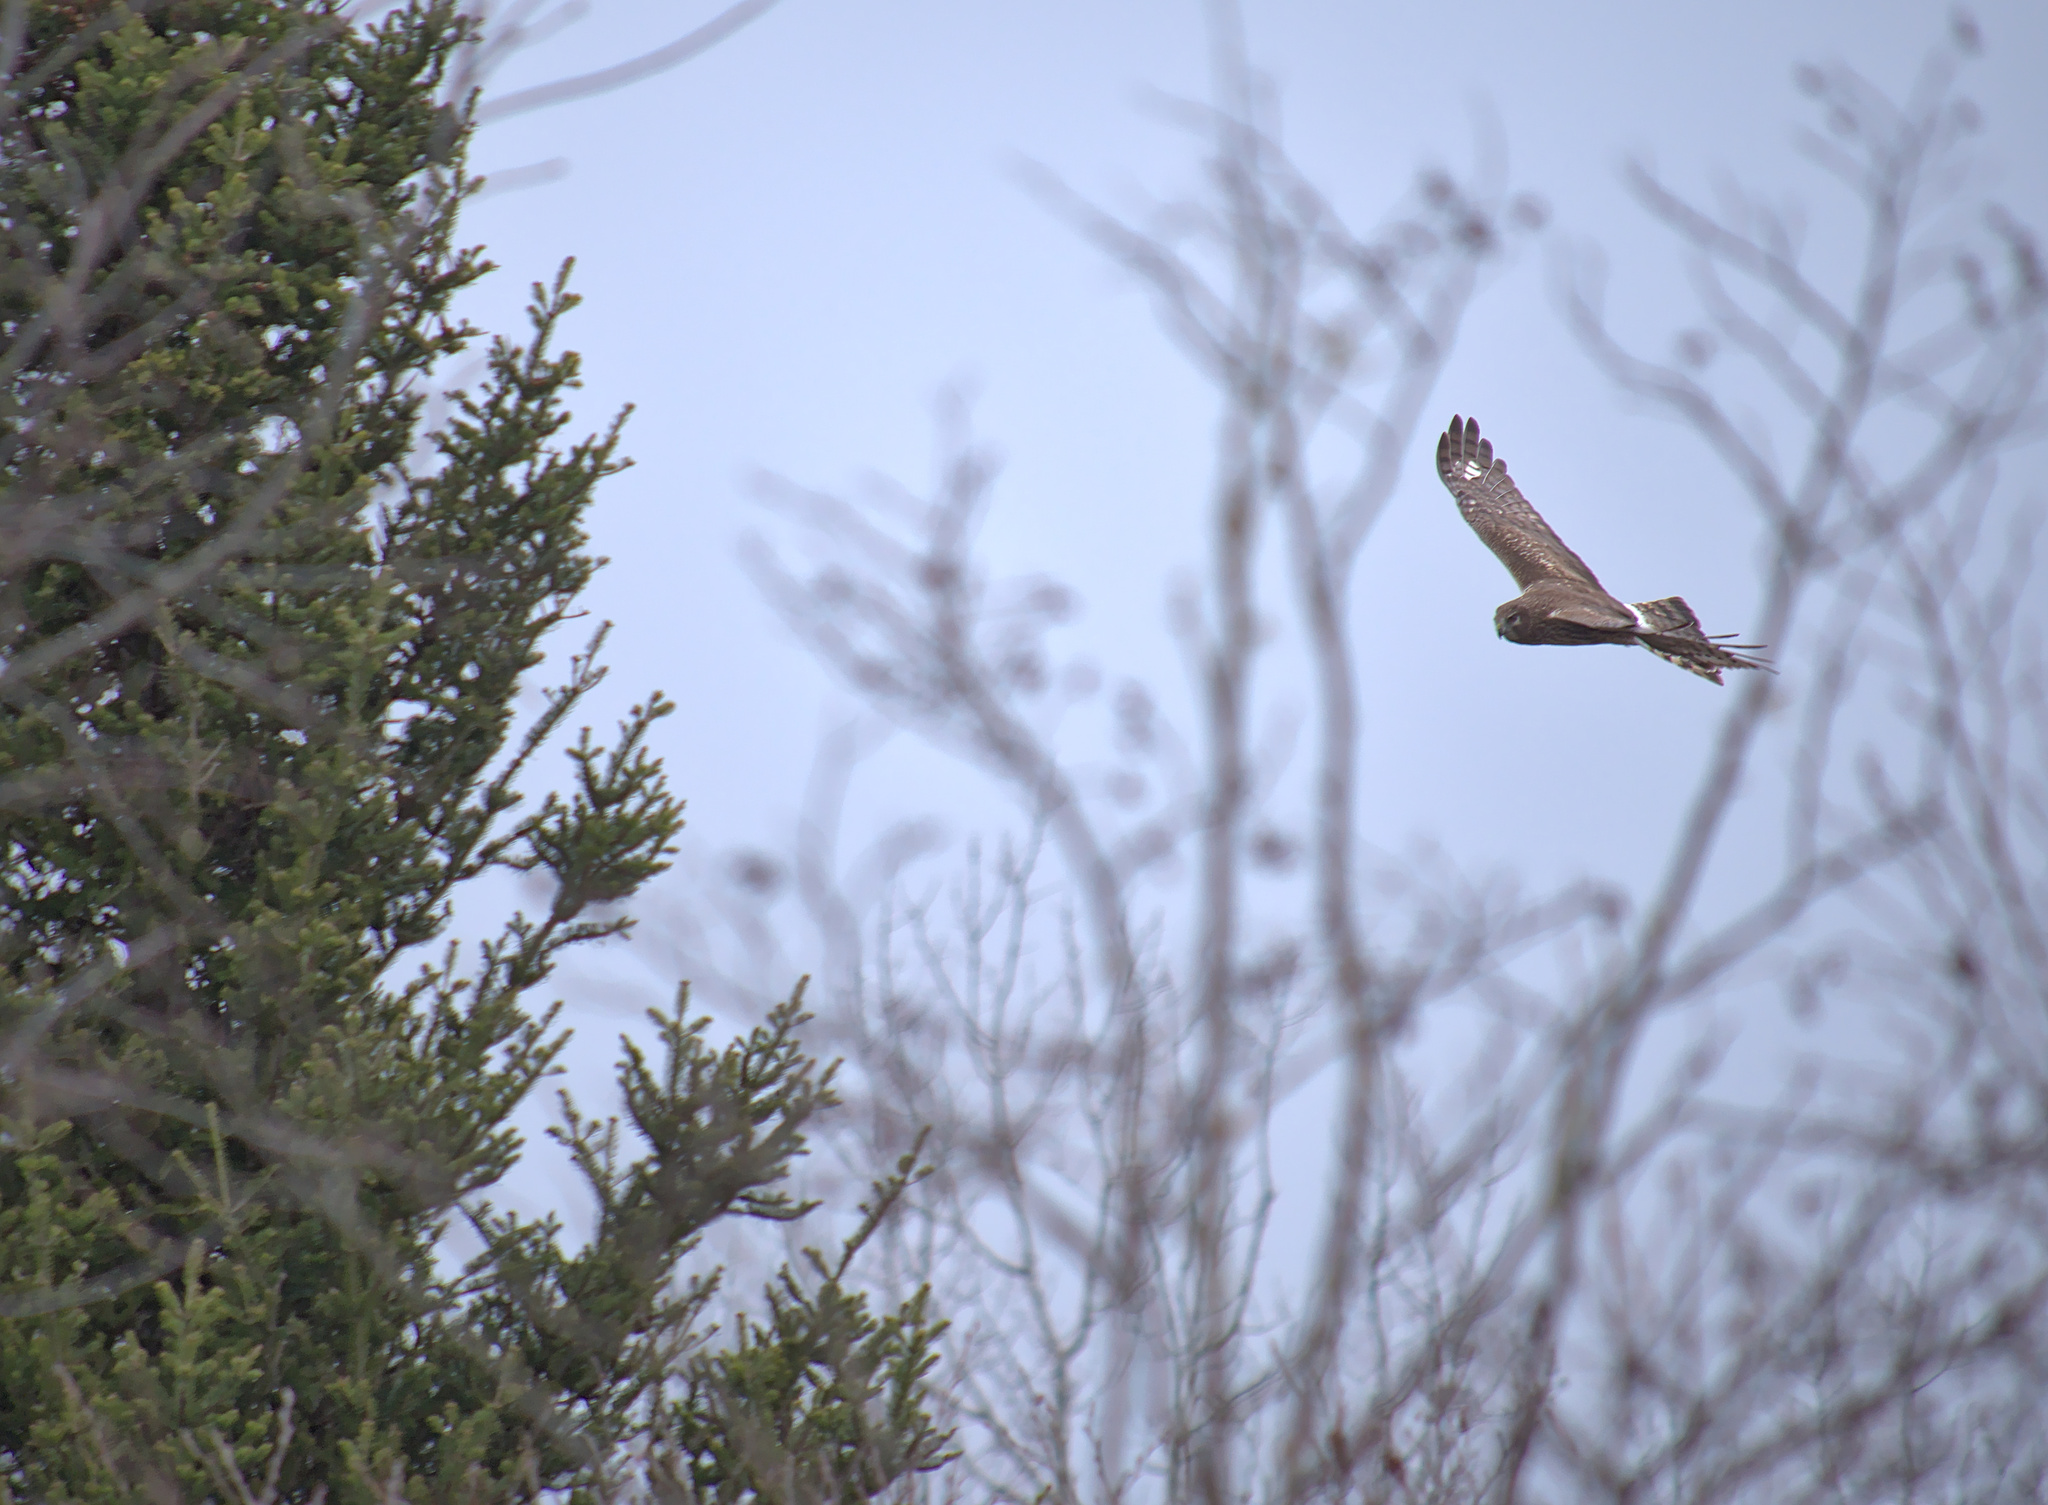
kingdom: Animalia
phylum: Chordata
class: Aves
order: Accipitriformes
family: Accipitridae
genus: Circus
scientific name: Circus cyaneus
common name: Hen harrier
